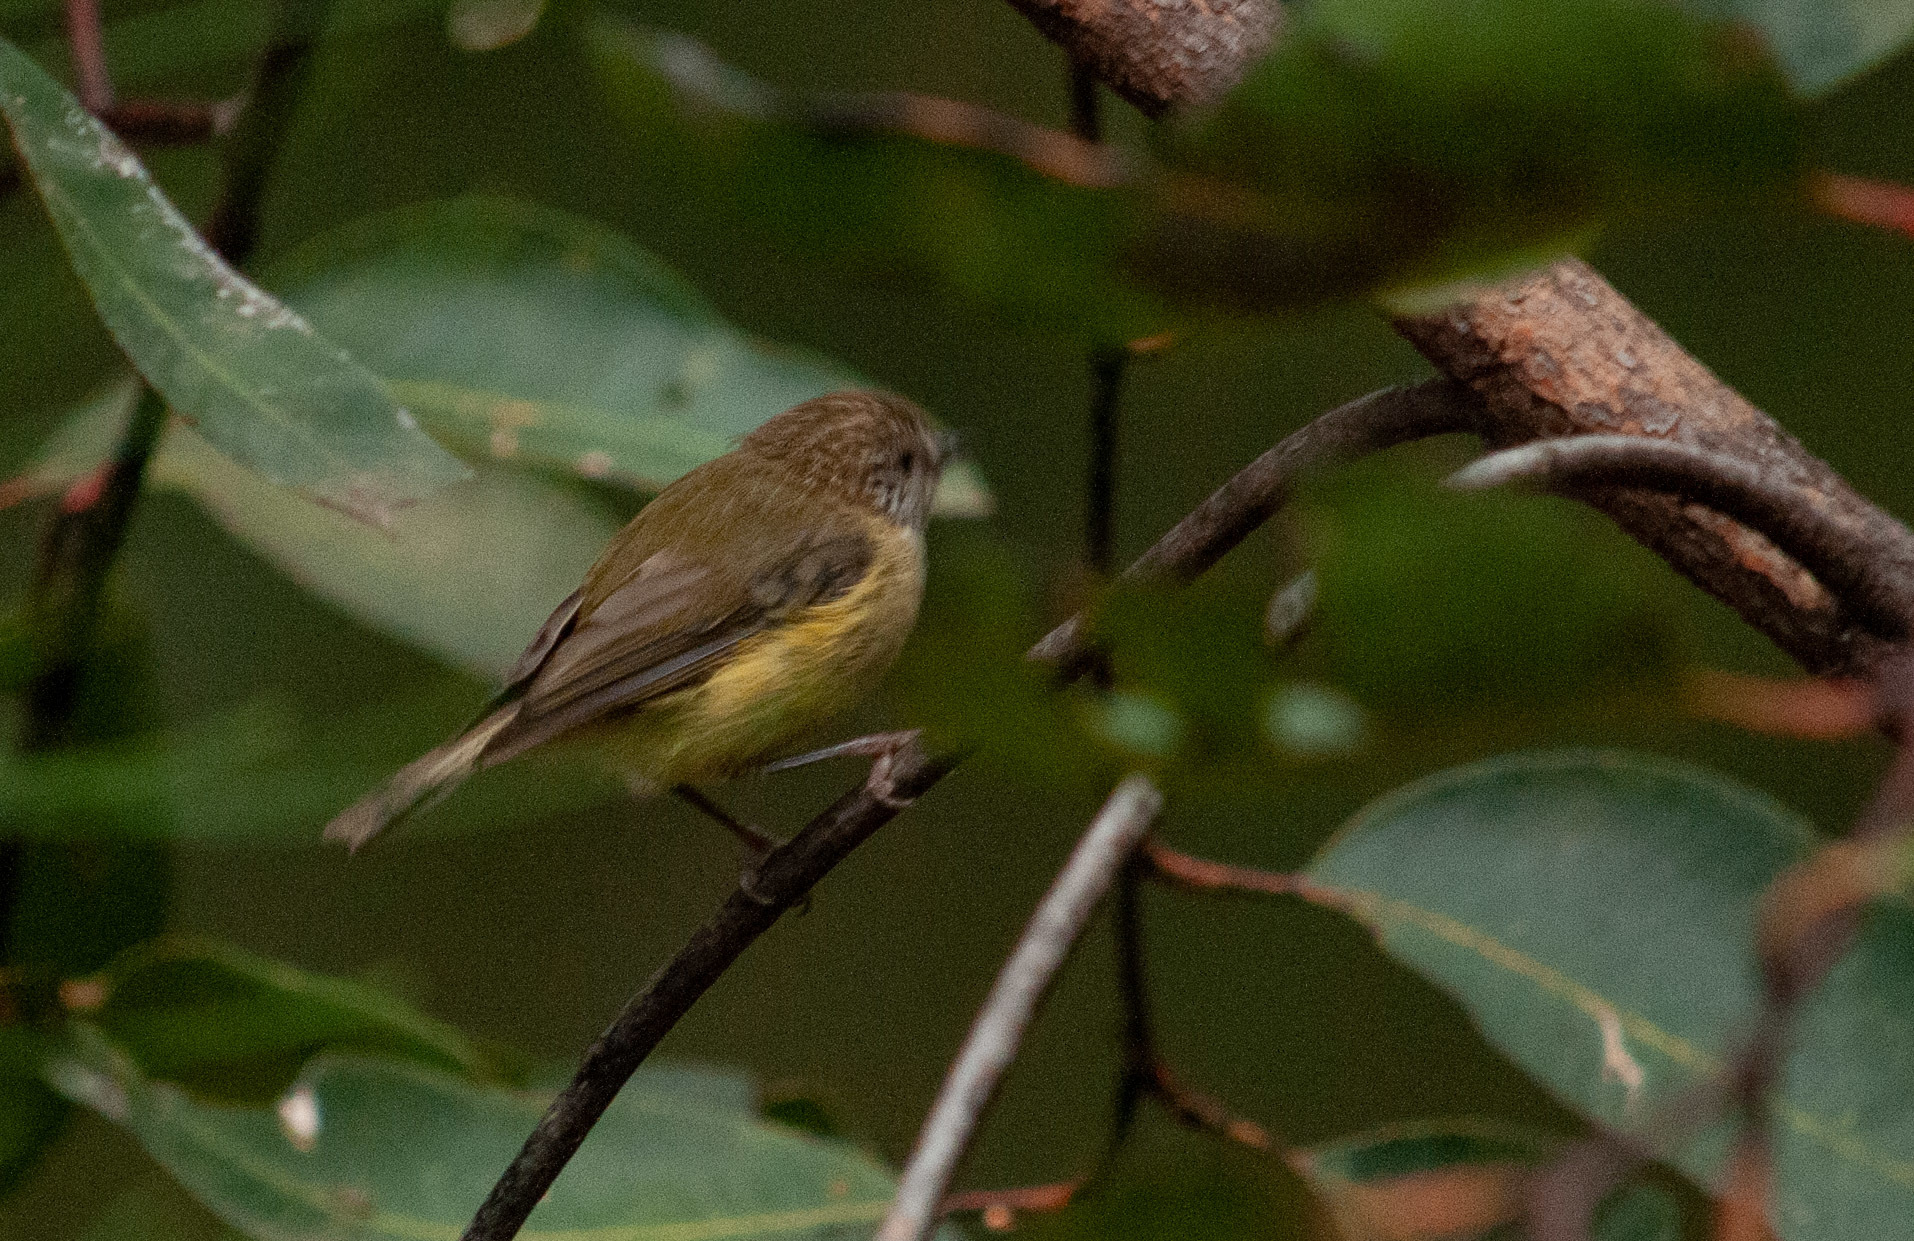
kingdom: Animalia
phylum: Chordata
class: Aves
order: Passeriformes
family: Acanthizidae
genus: Acanthiza
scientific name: Acanthiza lineata
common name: Striated thornbill
